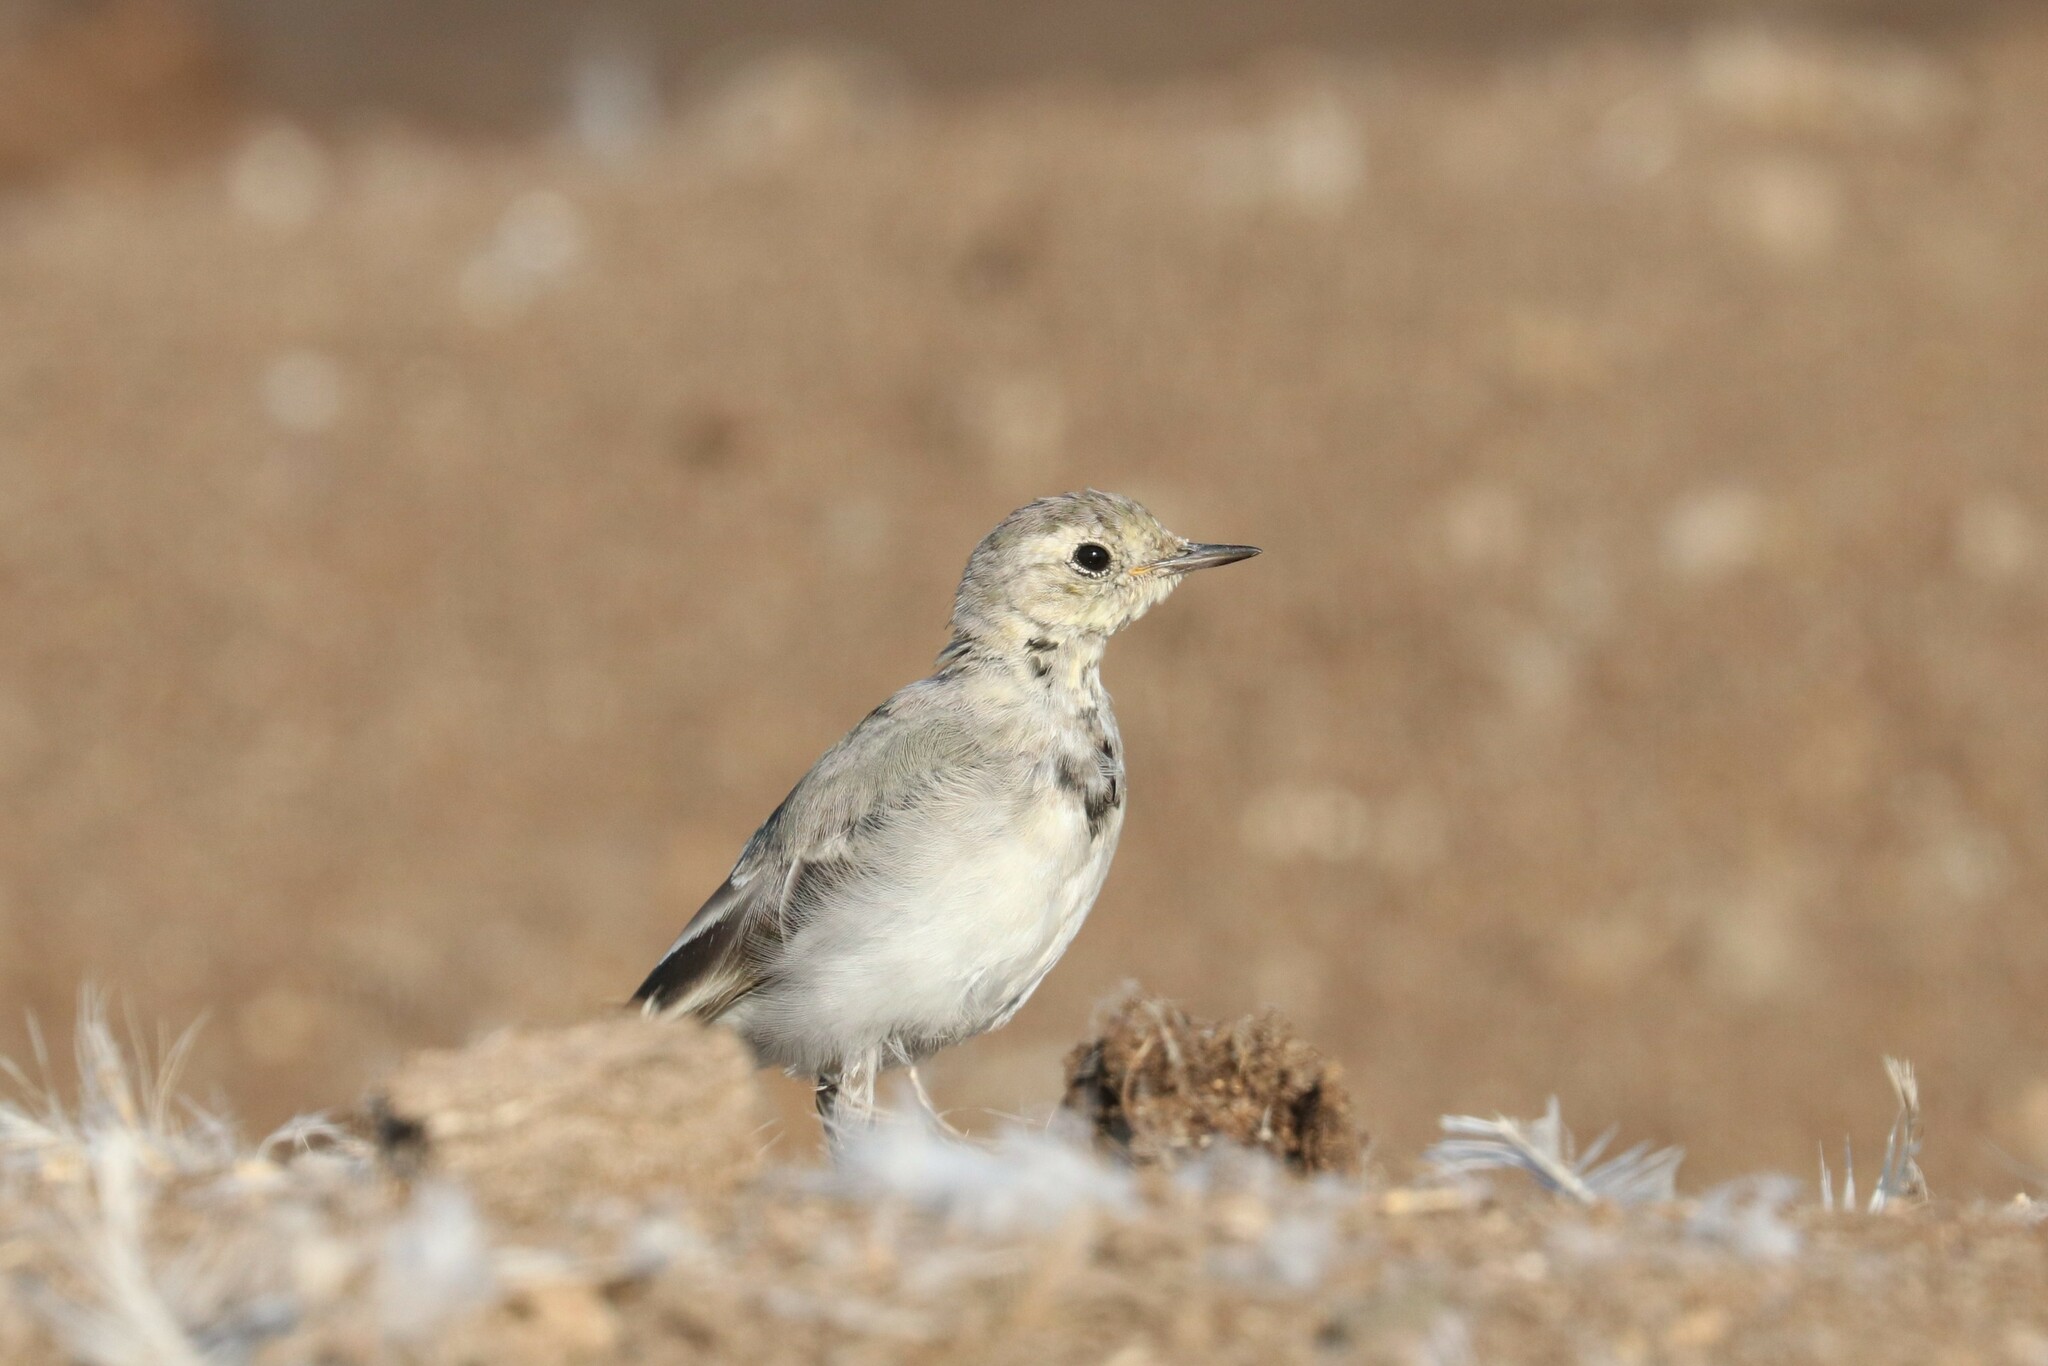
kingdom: Animalia
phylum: Chordata
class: Aves
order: Passeriformes
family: Motacillidae
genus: Motacilla
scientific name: Motacilla alba
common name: White wagtail
